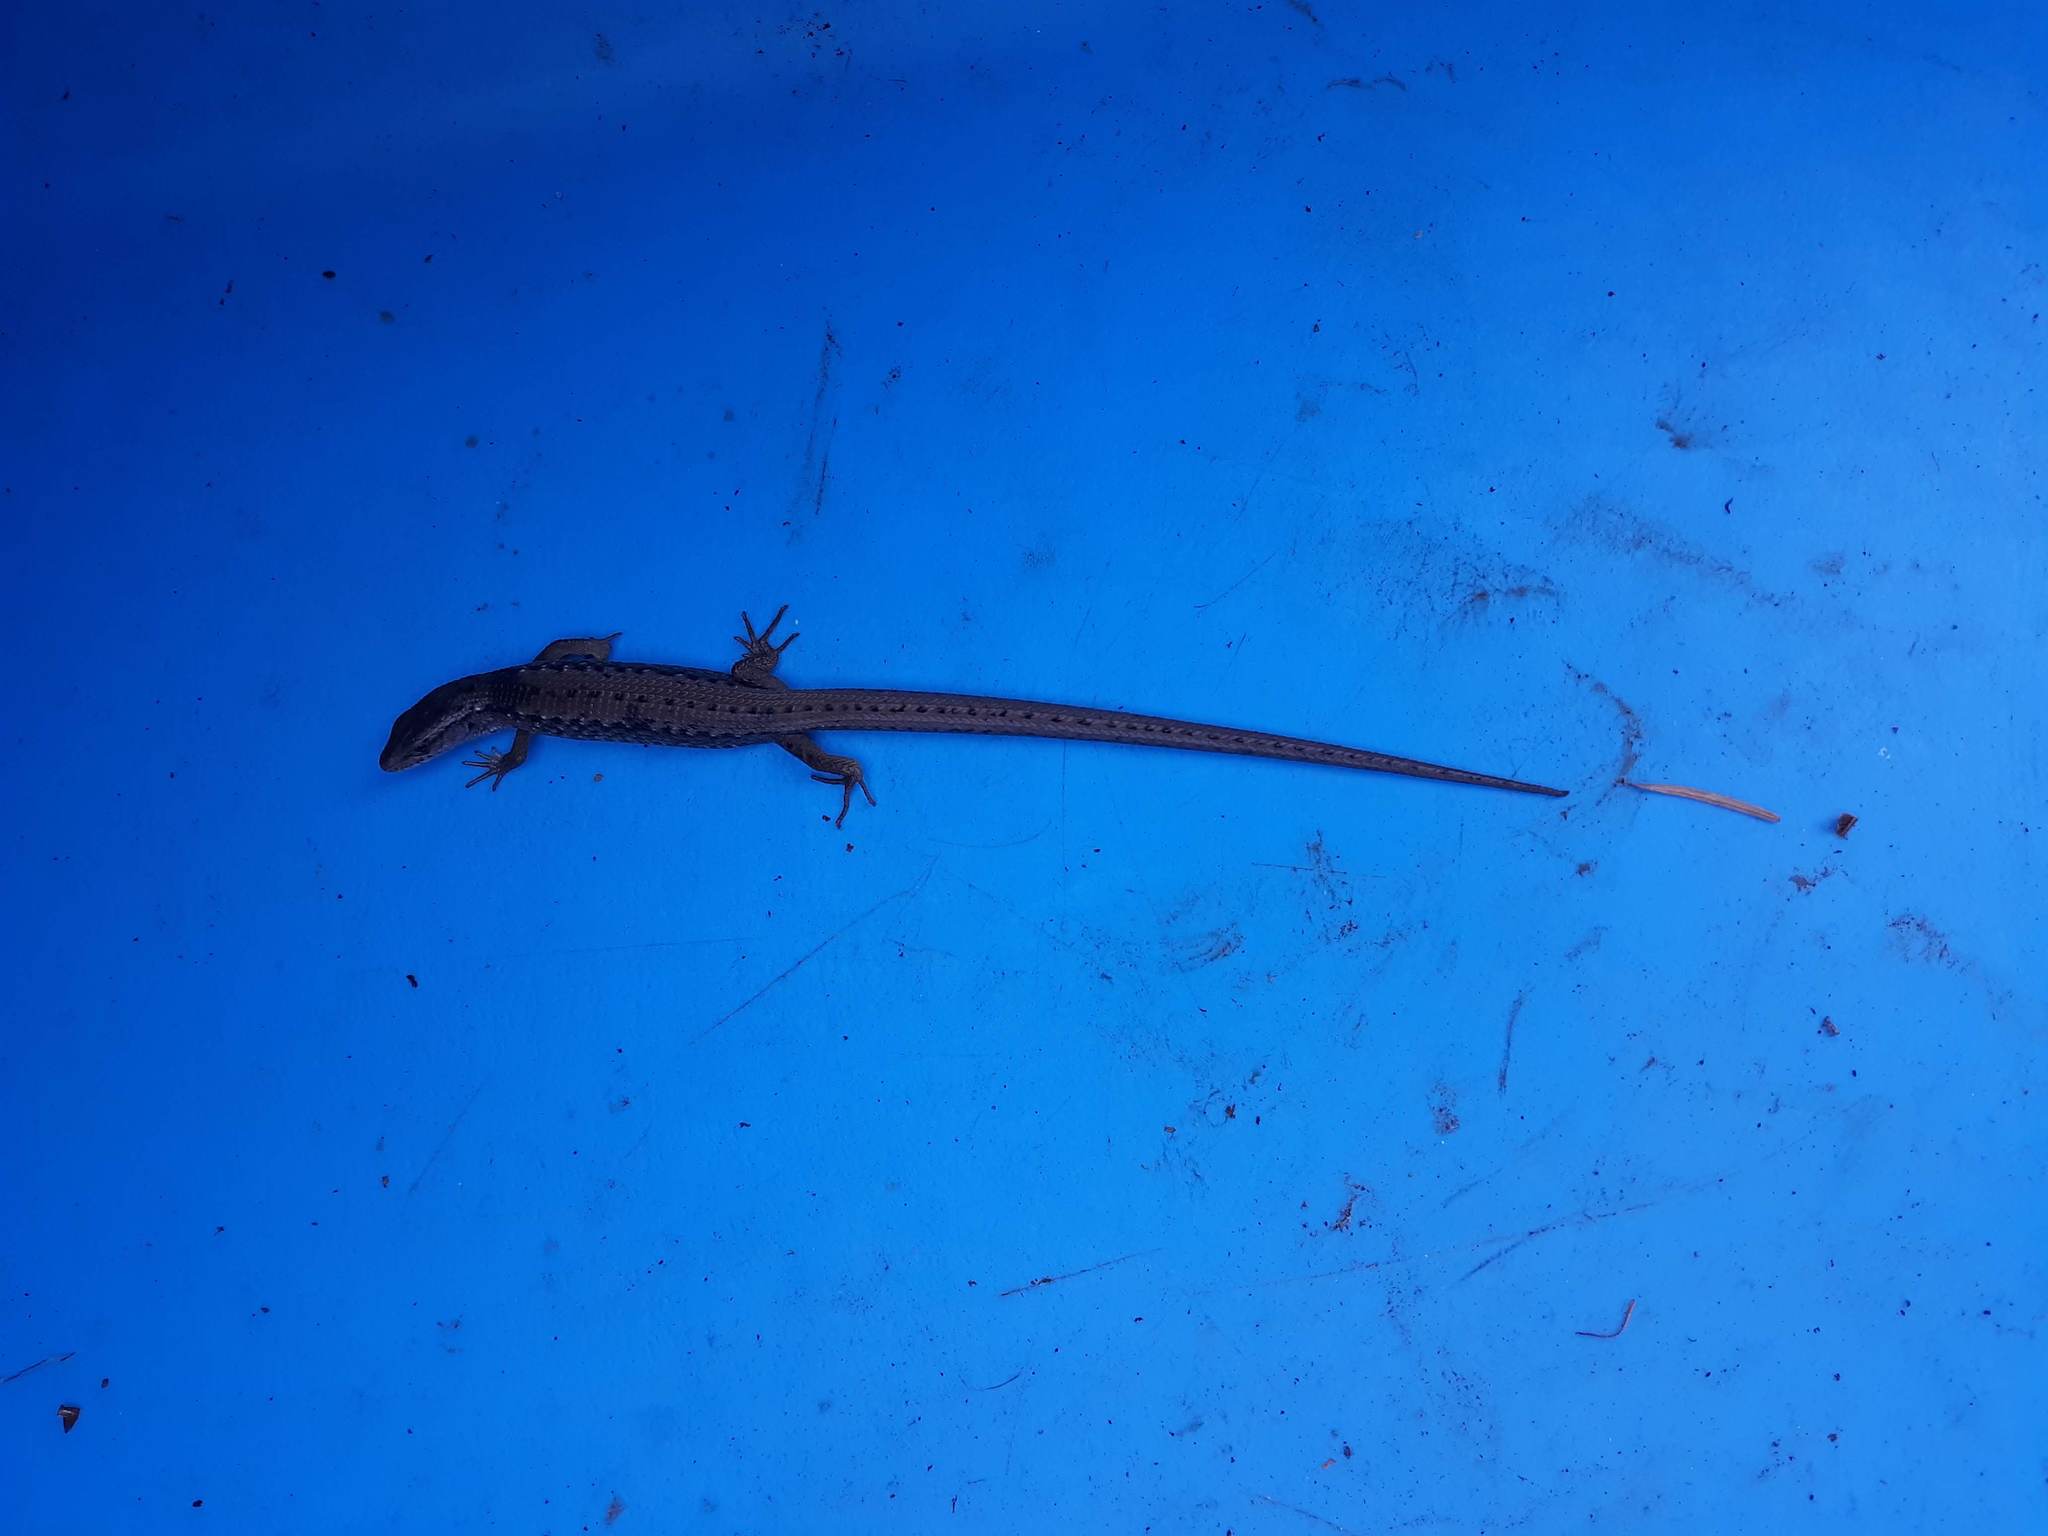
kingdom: Animalia
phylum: Chordata
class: Squamata
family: Anguidae
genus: Elgaria
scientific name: Elgaria coerulea
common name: Northern alligator lizard
